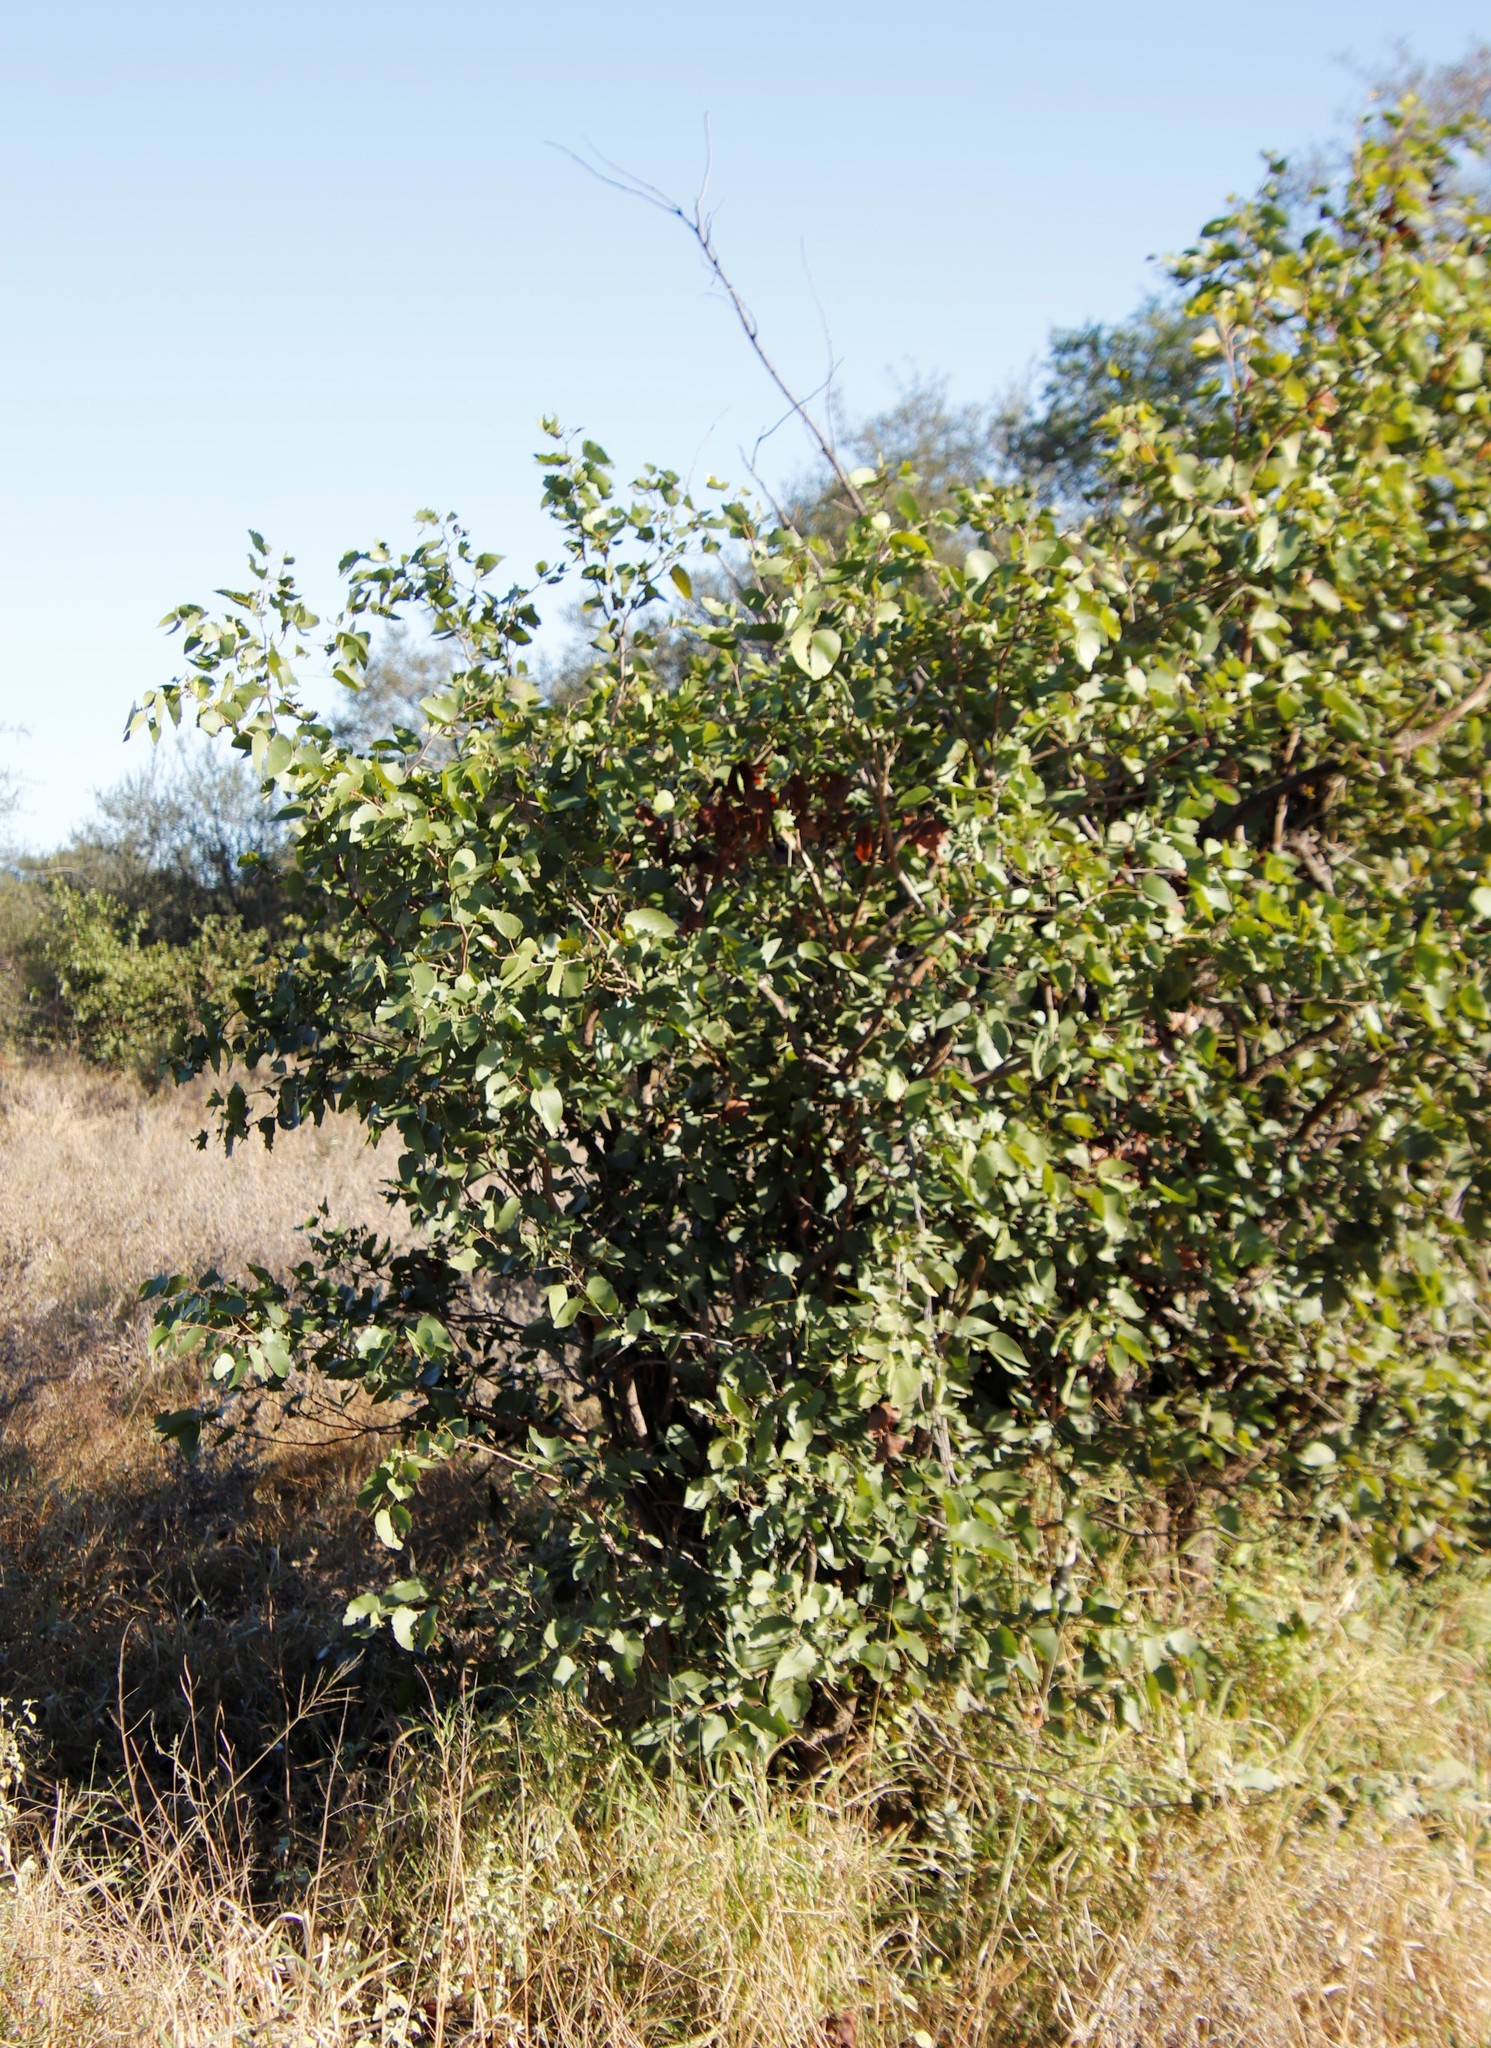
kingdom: Plantae
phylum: Tracheophyta
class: Magnoliopsida
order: Fabales
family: Fabaceae
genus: Colophospermum
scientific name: Colophospermum mopane
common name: Mopane
